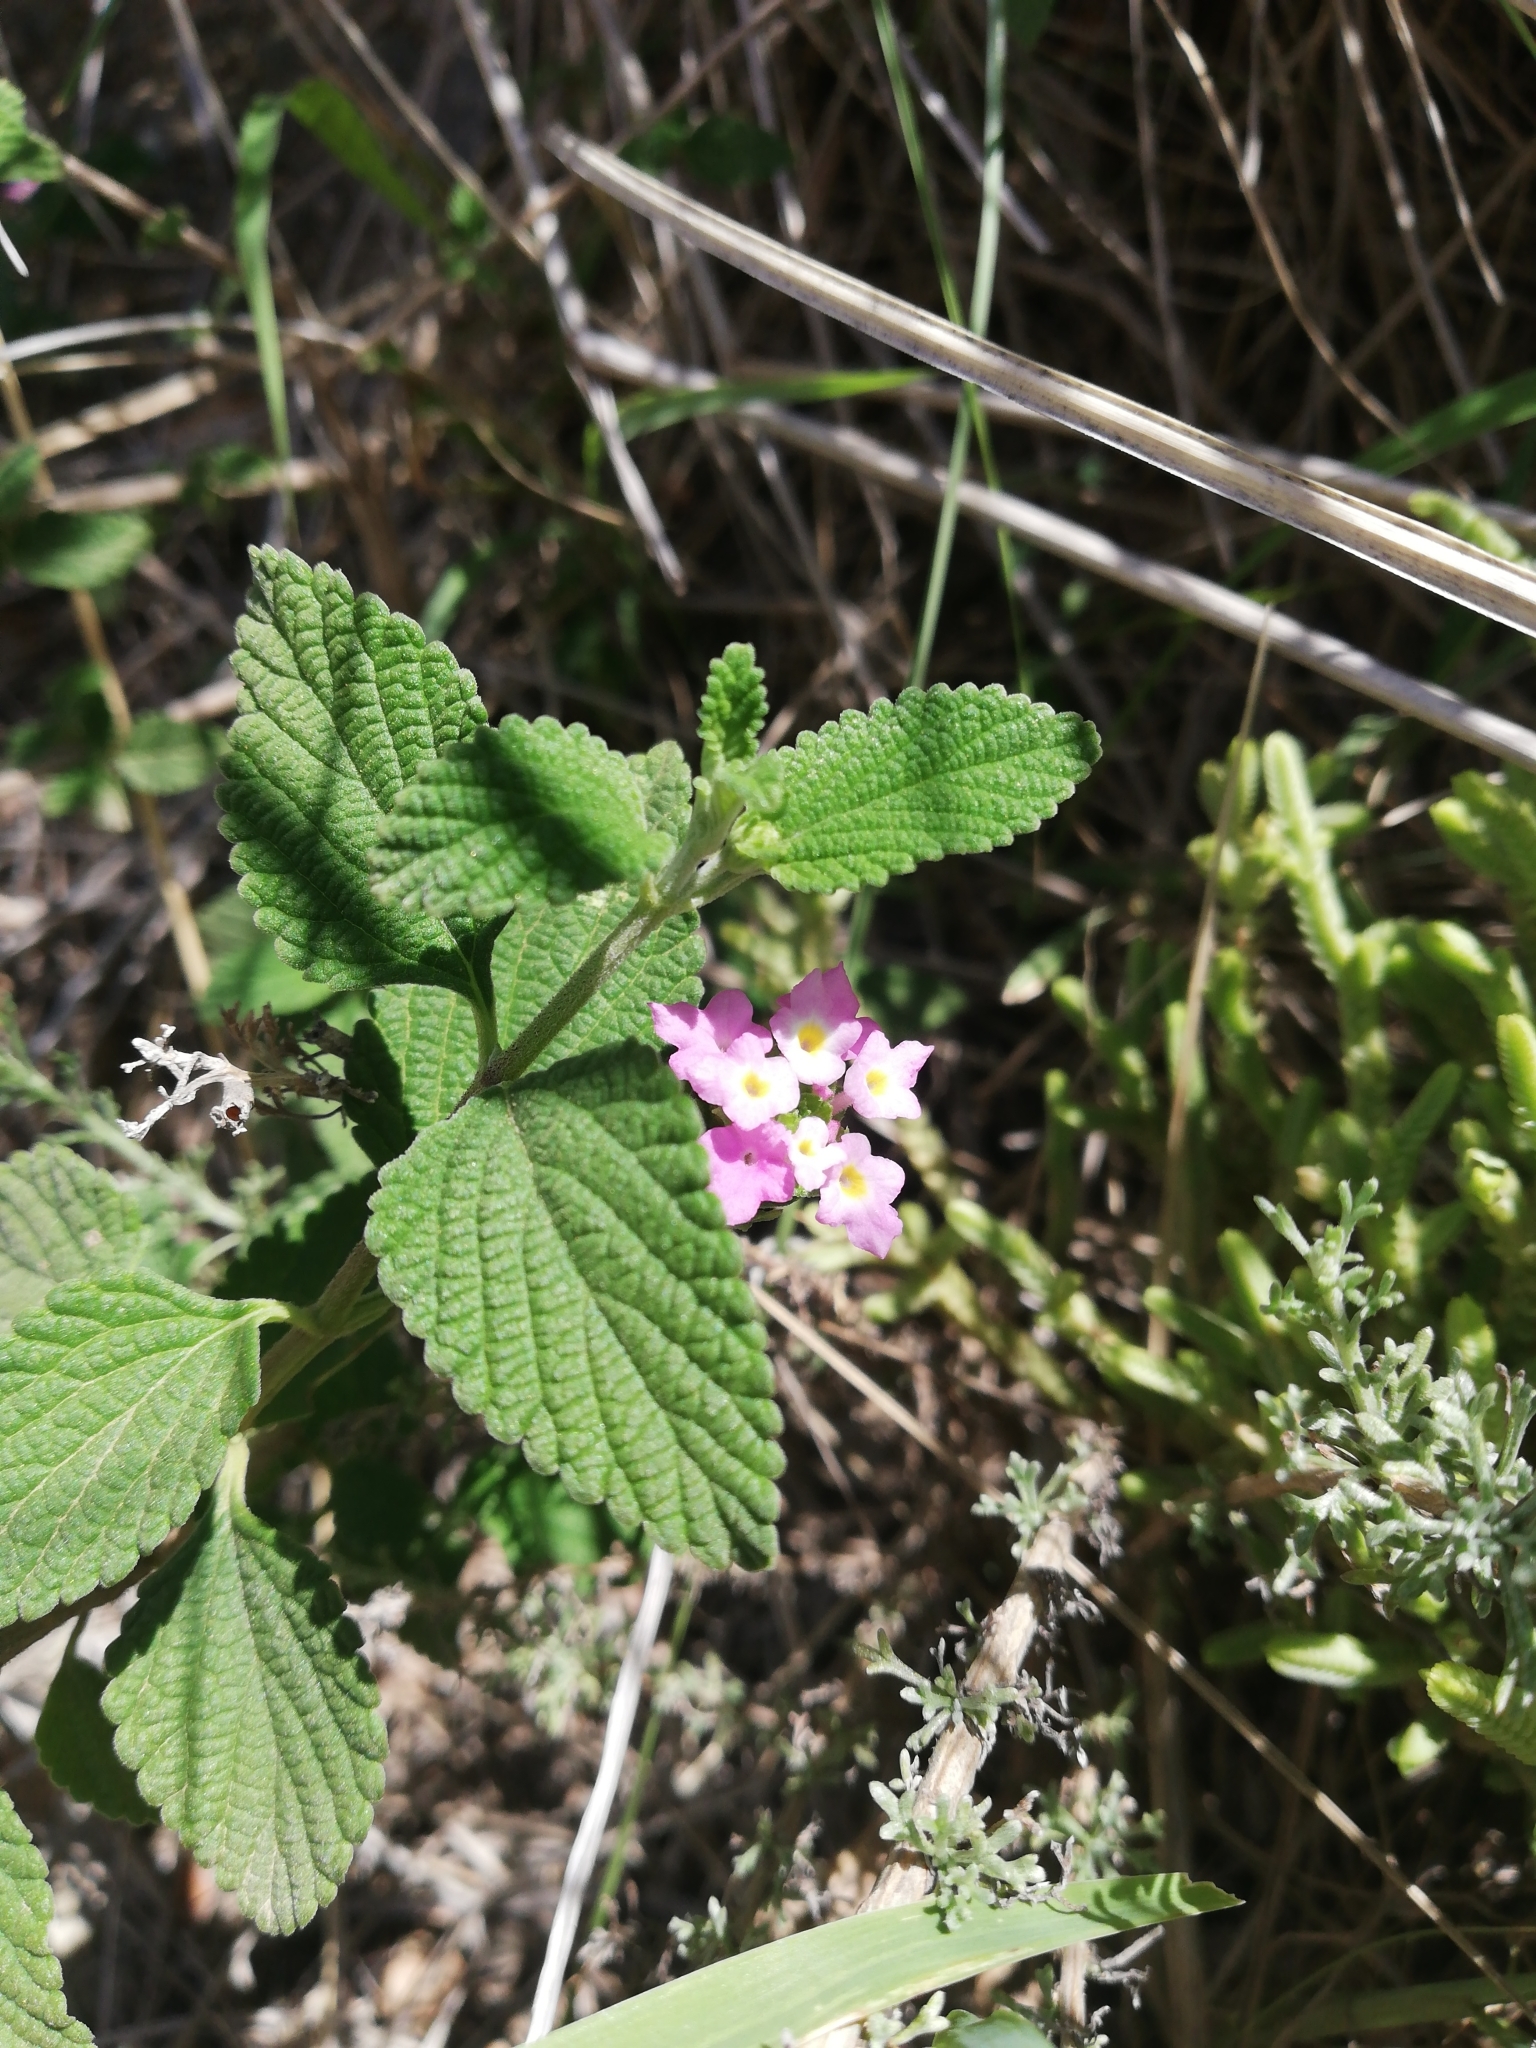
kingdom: Plantae
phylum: Tracheophyta
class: Magnoliopsida
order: Lamiales
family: Verbenaceae
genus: Lantana
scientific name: Lantana rugosa
